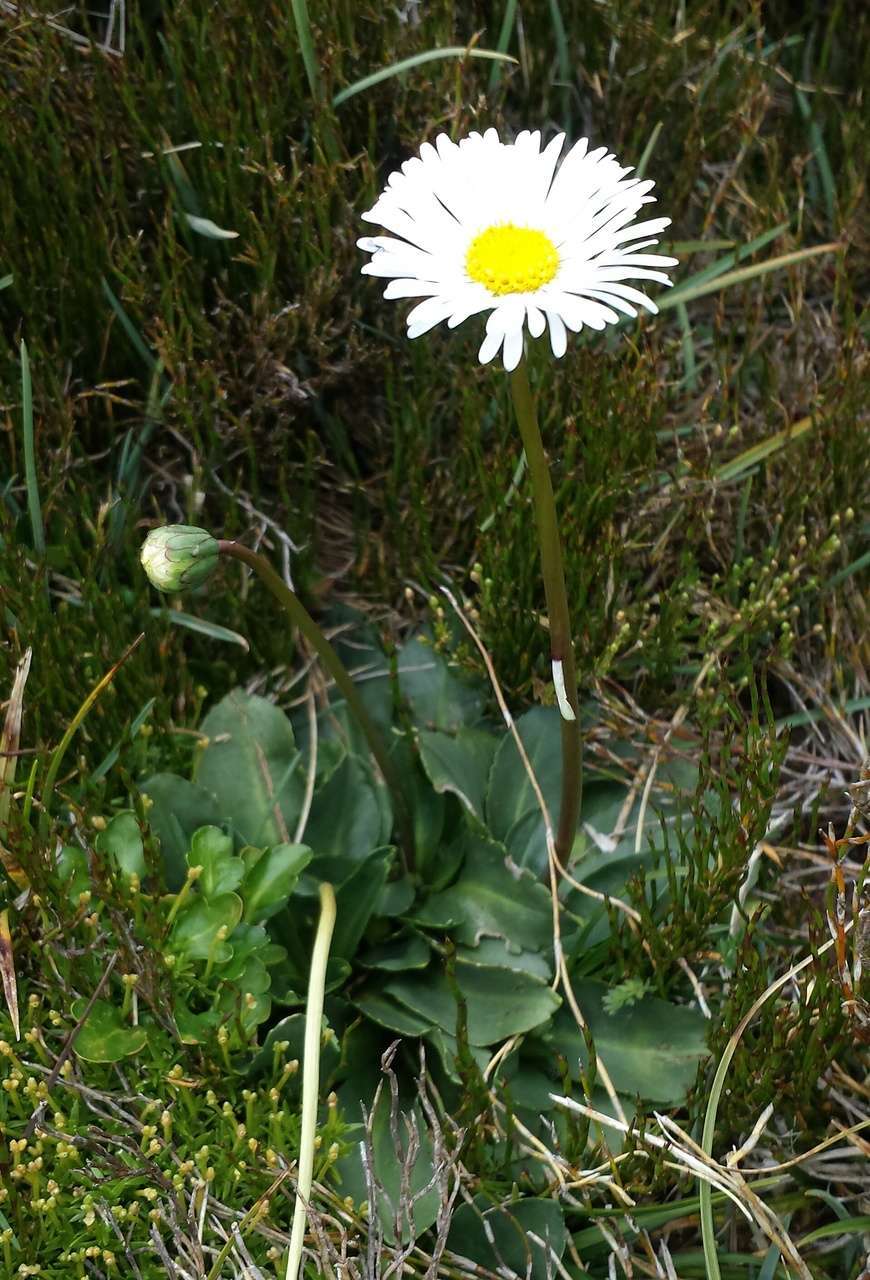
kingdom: Plantae
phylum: Tracheophyta
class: Magnoliopsida
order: Asterales
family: Asteraceae
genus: Brachyscome
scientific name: Brachyscome decipiens
